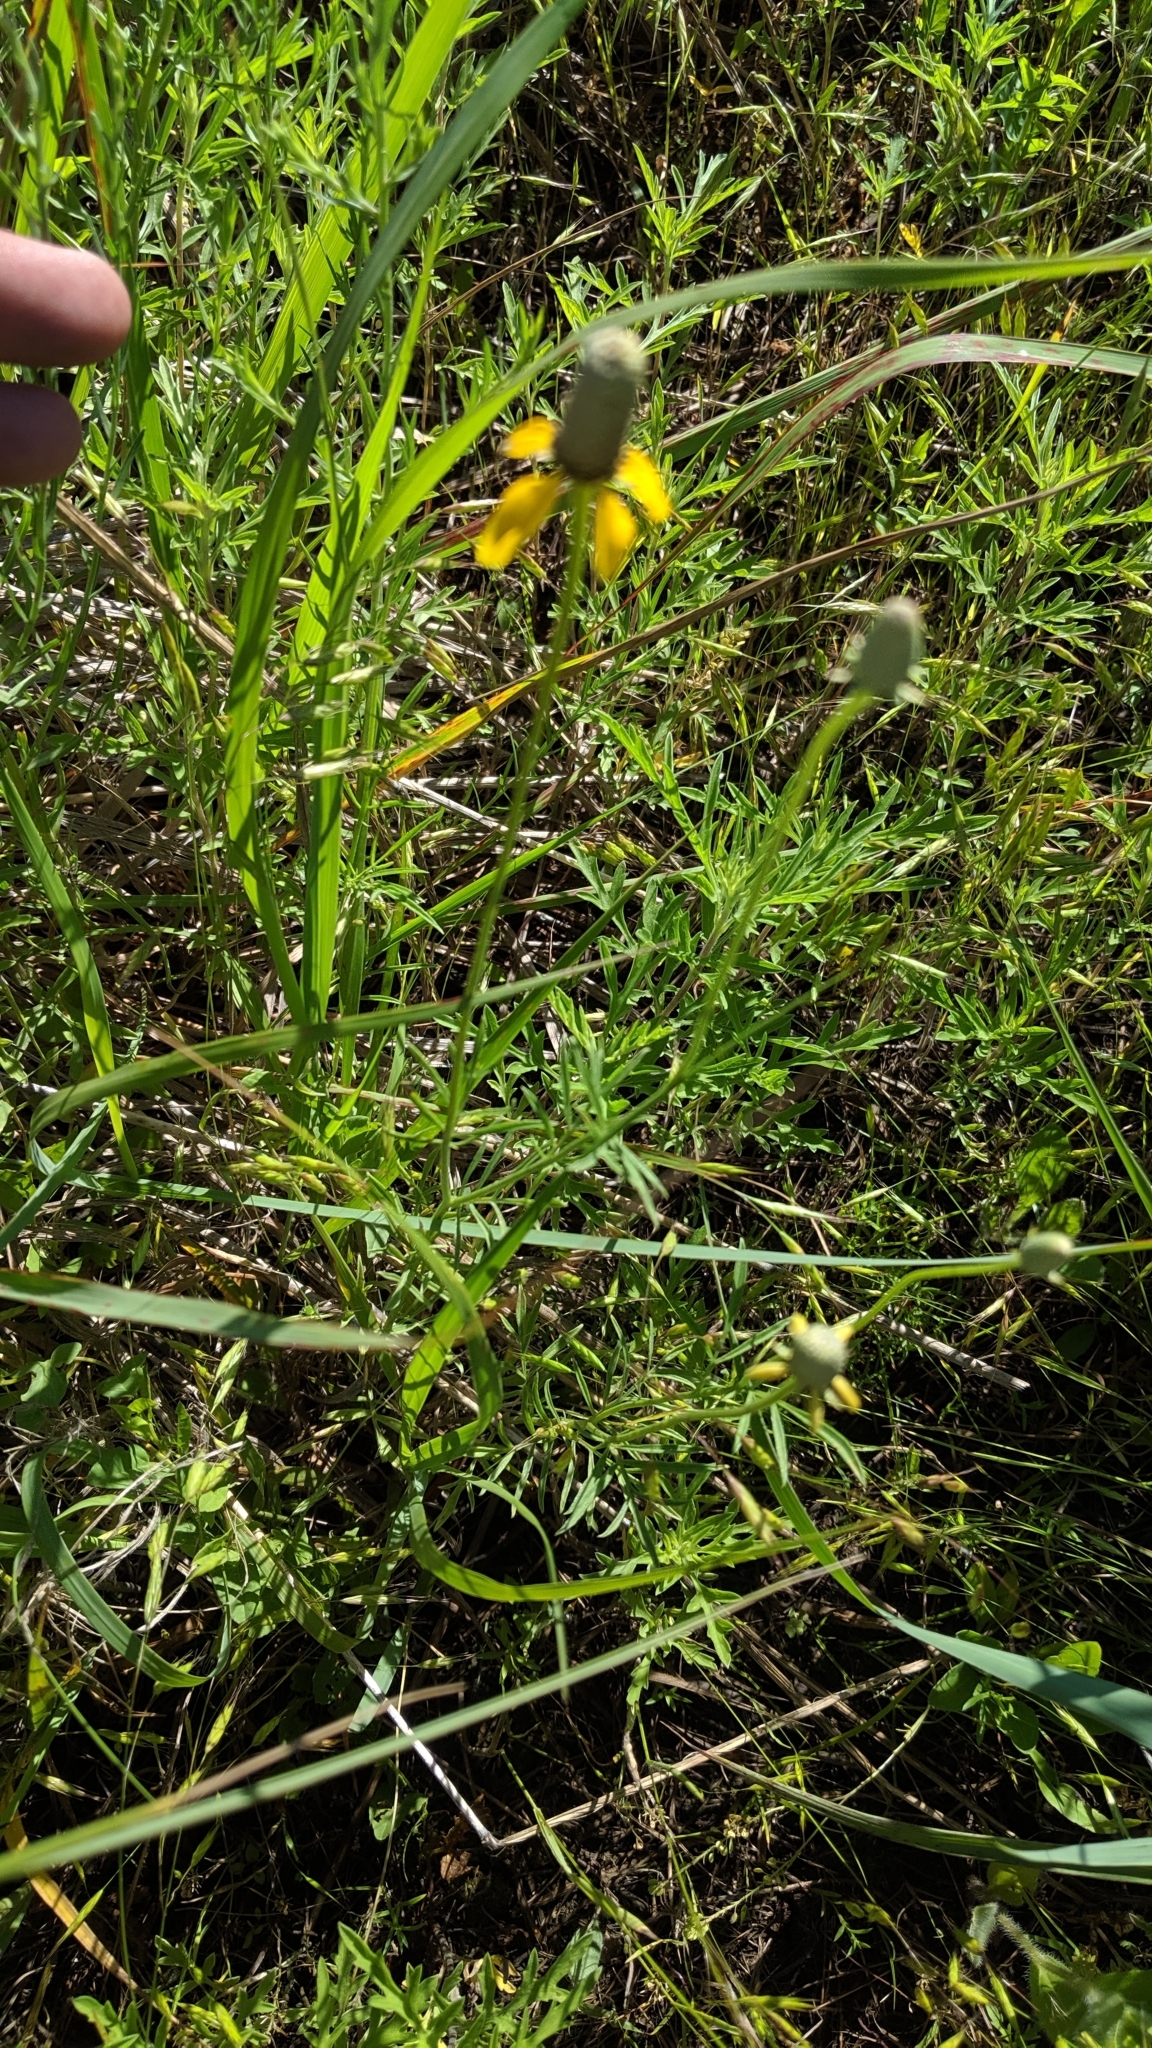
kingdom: Plantae
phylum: Tracheophyta
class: Magnoliopsida
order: Asterales
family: Asteraceae
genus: Ratibida
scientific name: Ratibida columnifera
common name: Prairie coneflower
